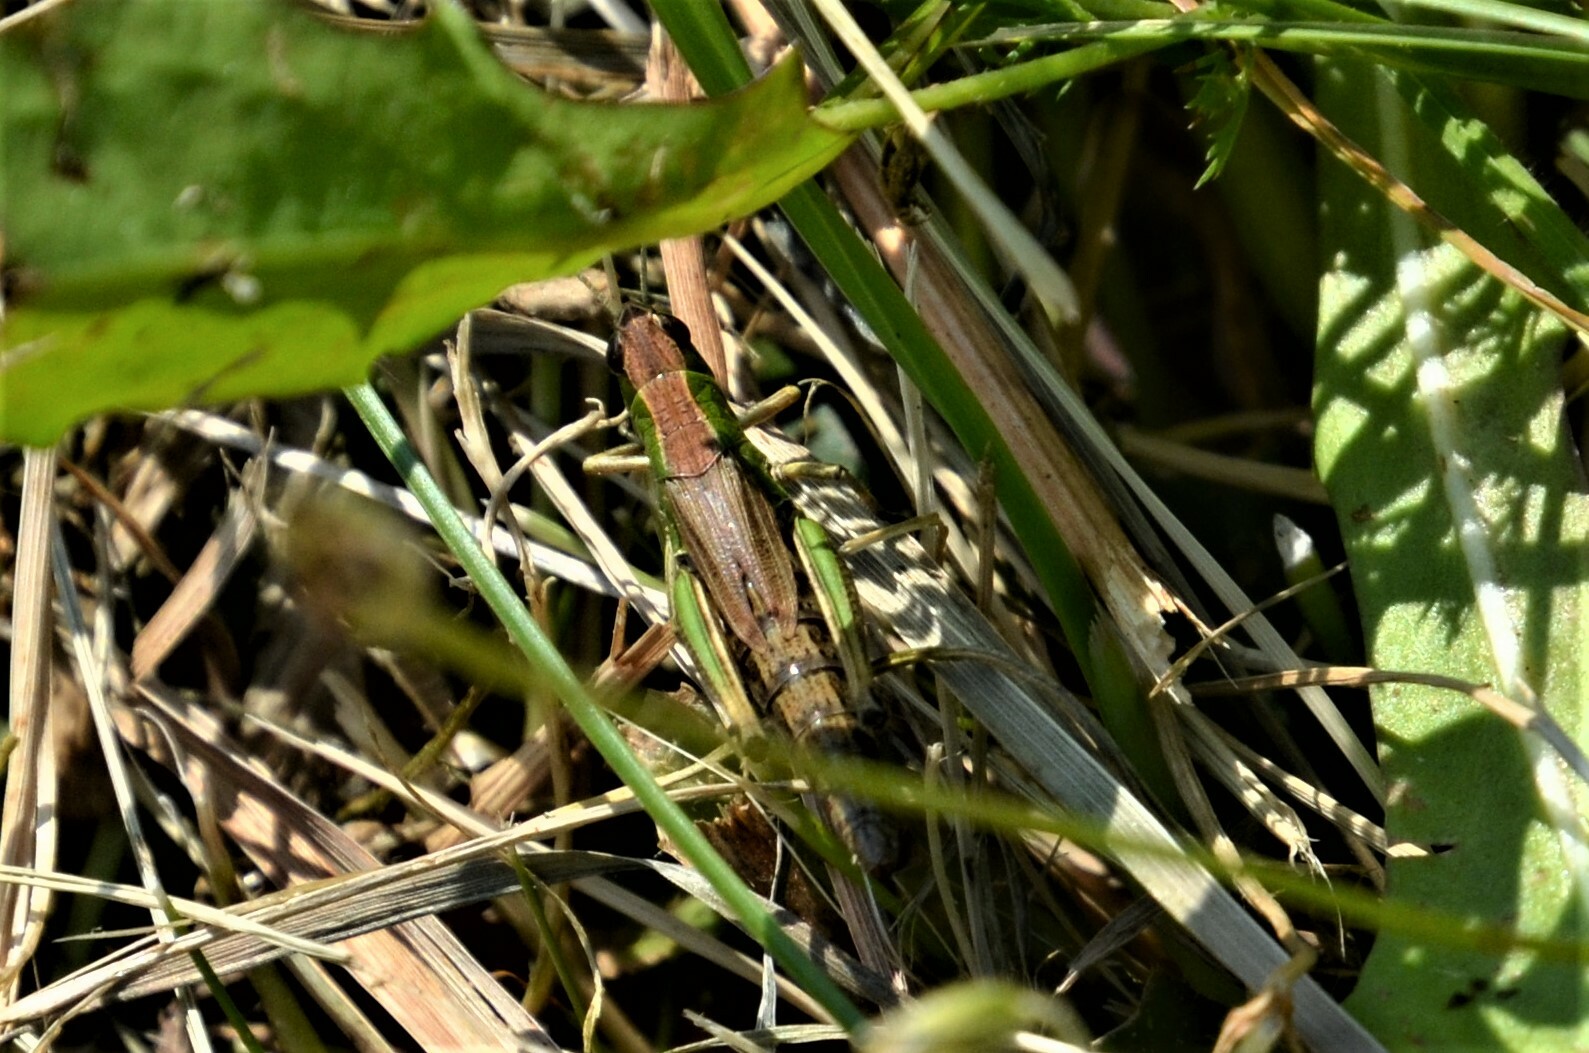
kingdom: Animalia
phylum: Arthropoda
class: Insecta
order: Orthoptera
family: Acrididae
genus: Pseudochorthippus
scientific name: Pseudochorthippus parallelus
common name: Meadow grasshopper
